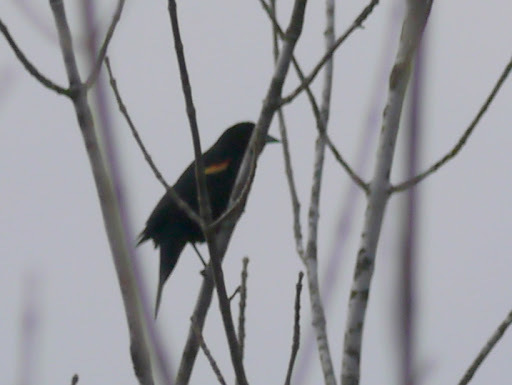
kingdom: Animalia
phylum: Chordata
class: Aves
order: Passeriformes
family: Icteridae
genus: Agelaius
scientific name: Agelaius phoeniceus
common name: Red-winged blackbird
